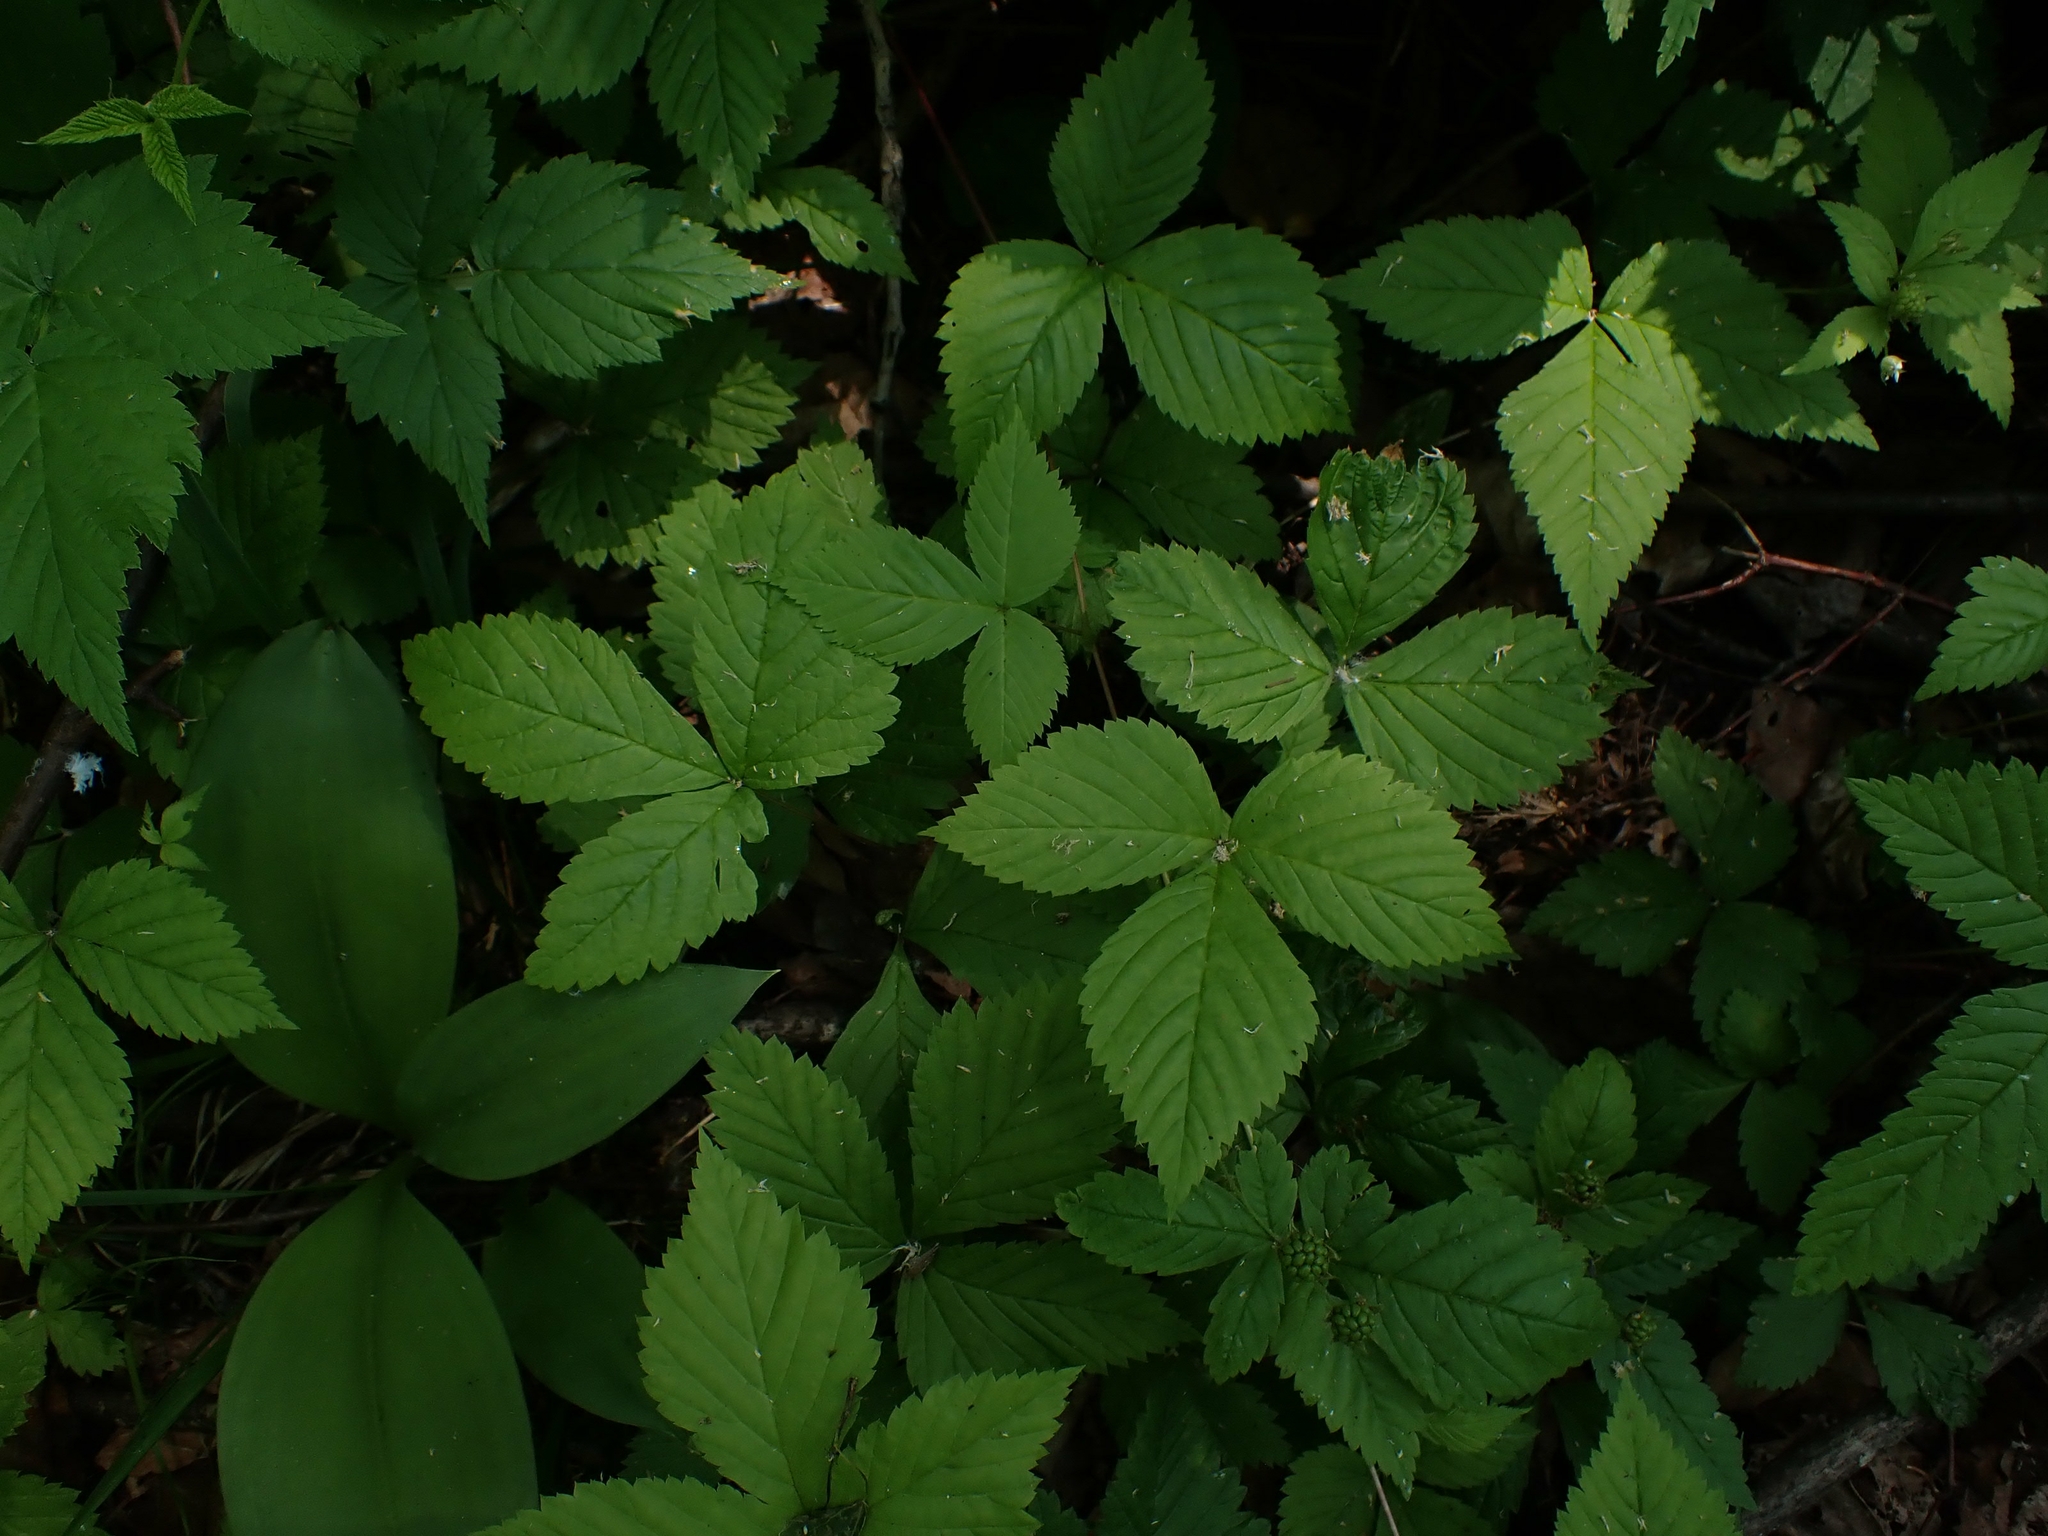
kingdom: Plantae
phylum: Tracheophyta
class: Magnoliopsida
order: Rosales
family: Rosaceae
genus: Rubus
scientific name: Rubus pubescens
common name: Dwarf raspberry
